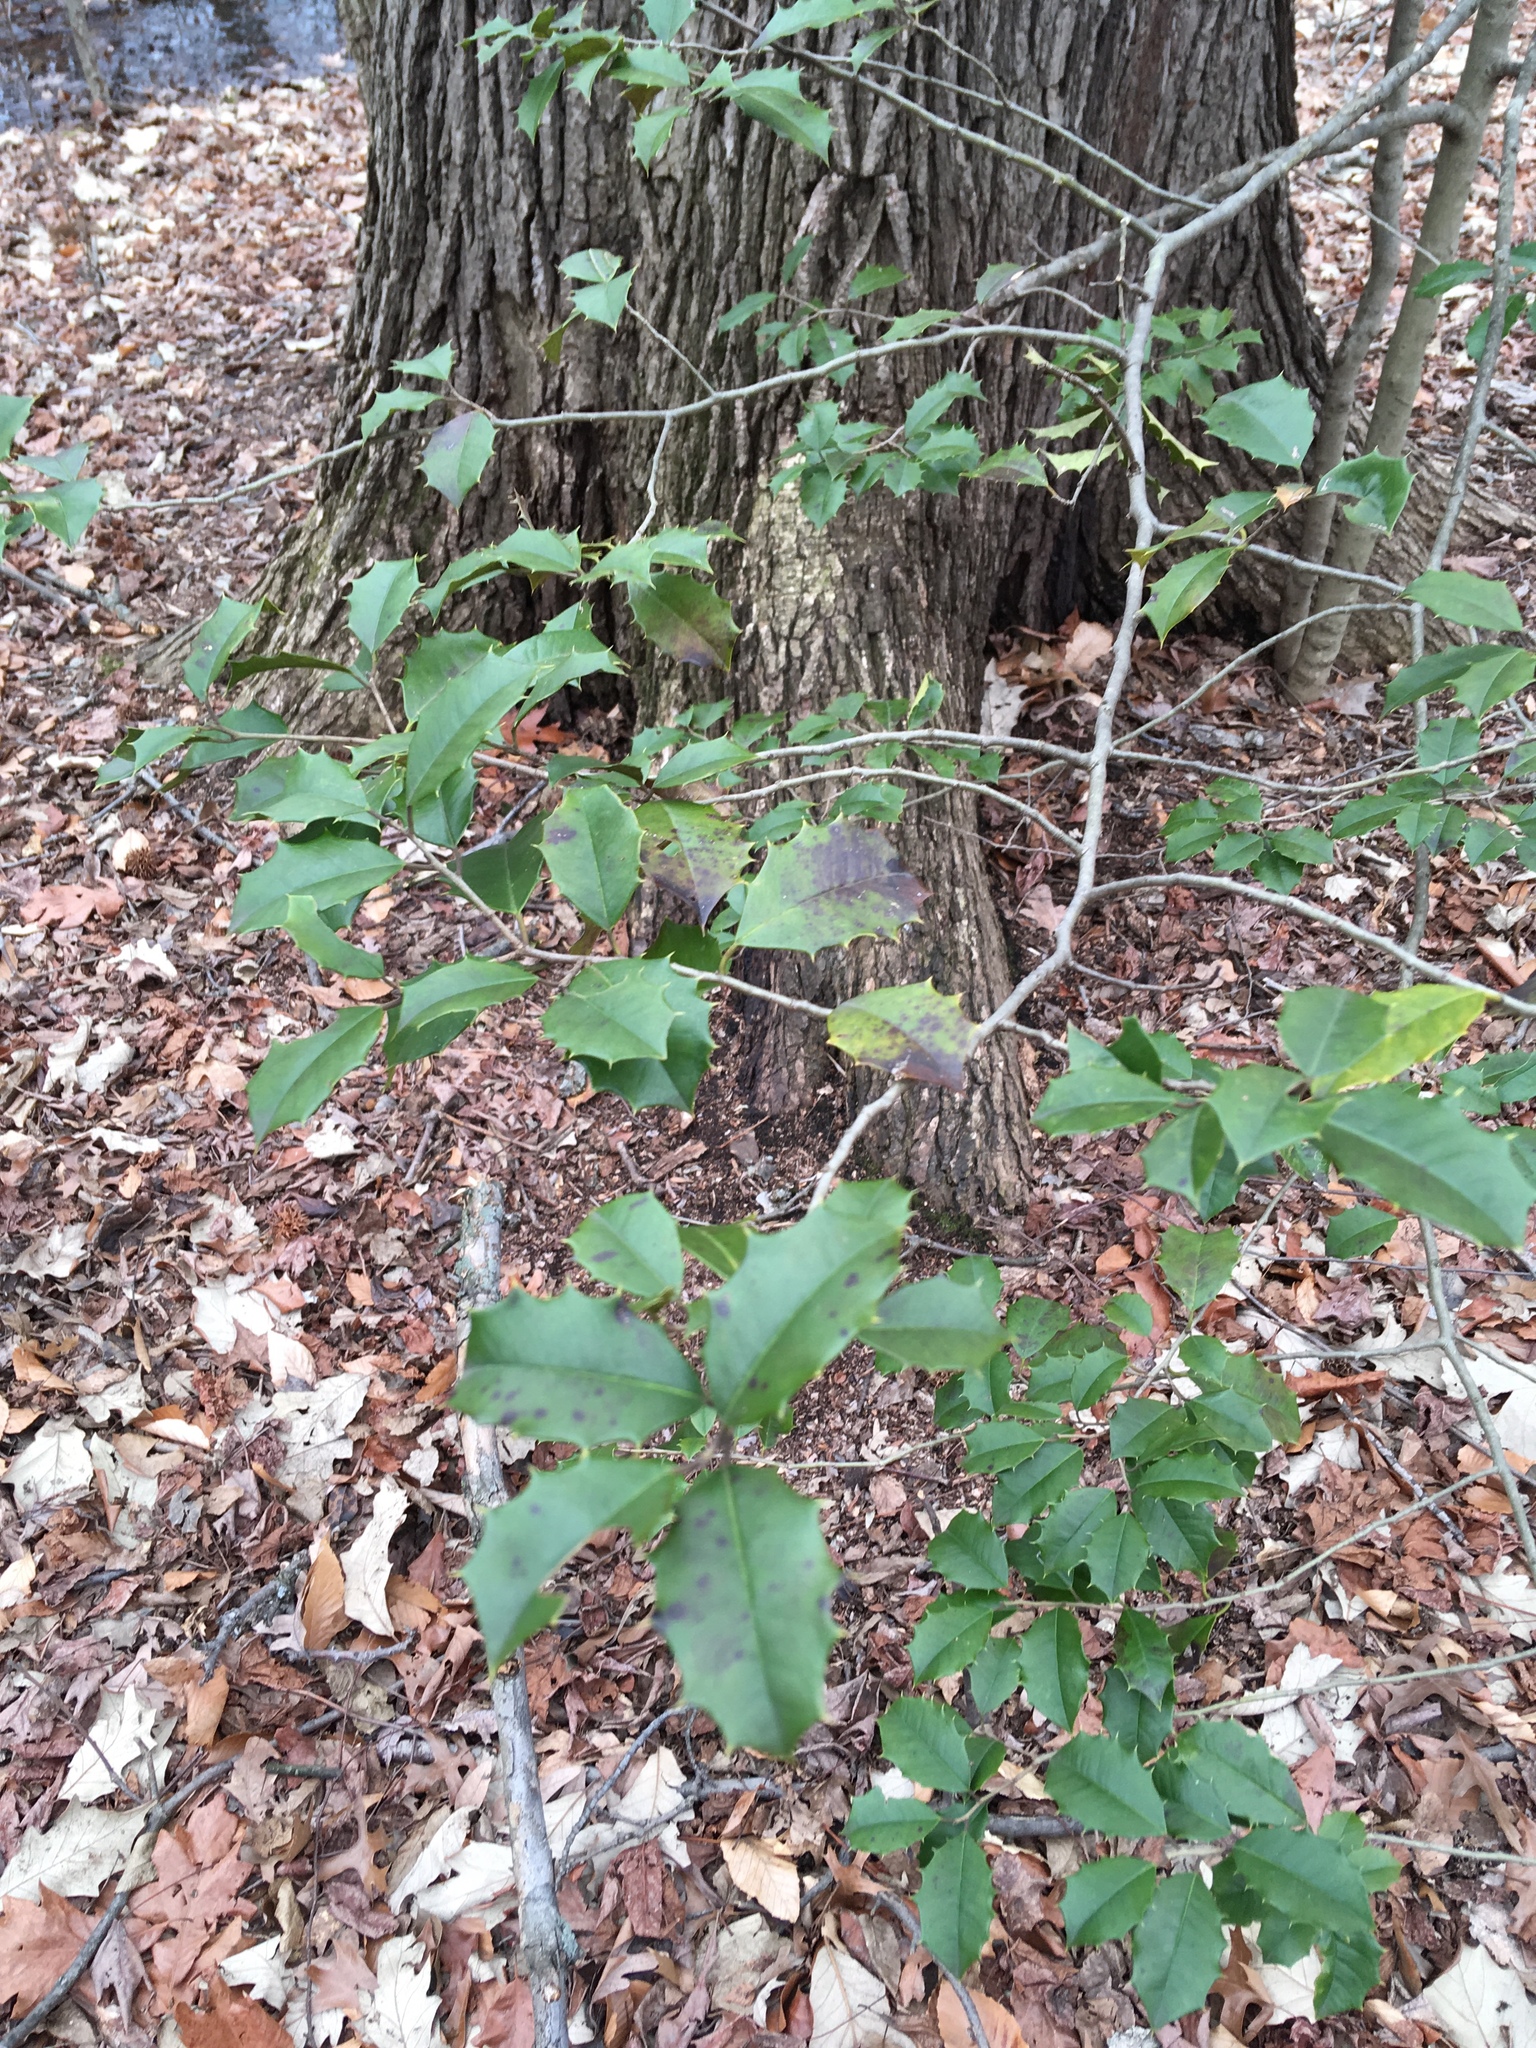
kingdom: Plantae
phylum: Tracheophyta
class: Magnoliopsida
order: Aquifoliales
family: Aquifoliaceae
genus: Ilex
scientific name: Ilex opaca
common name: American holly
